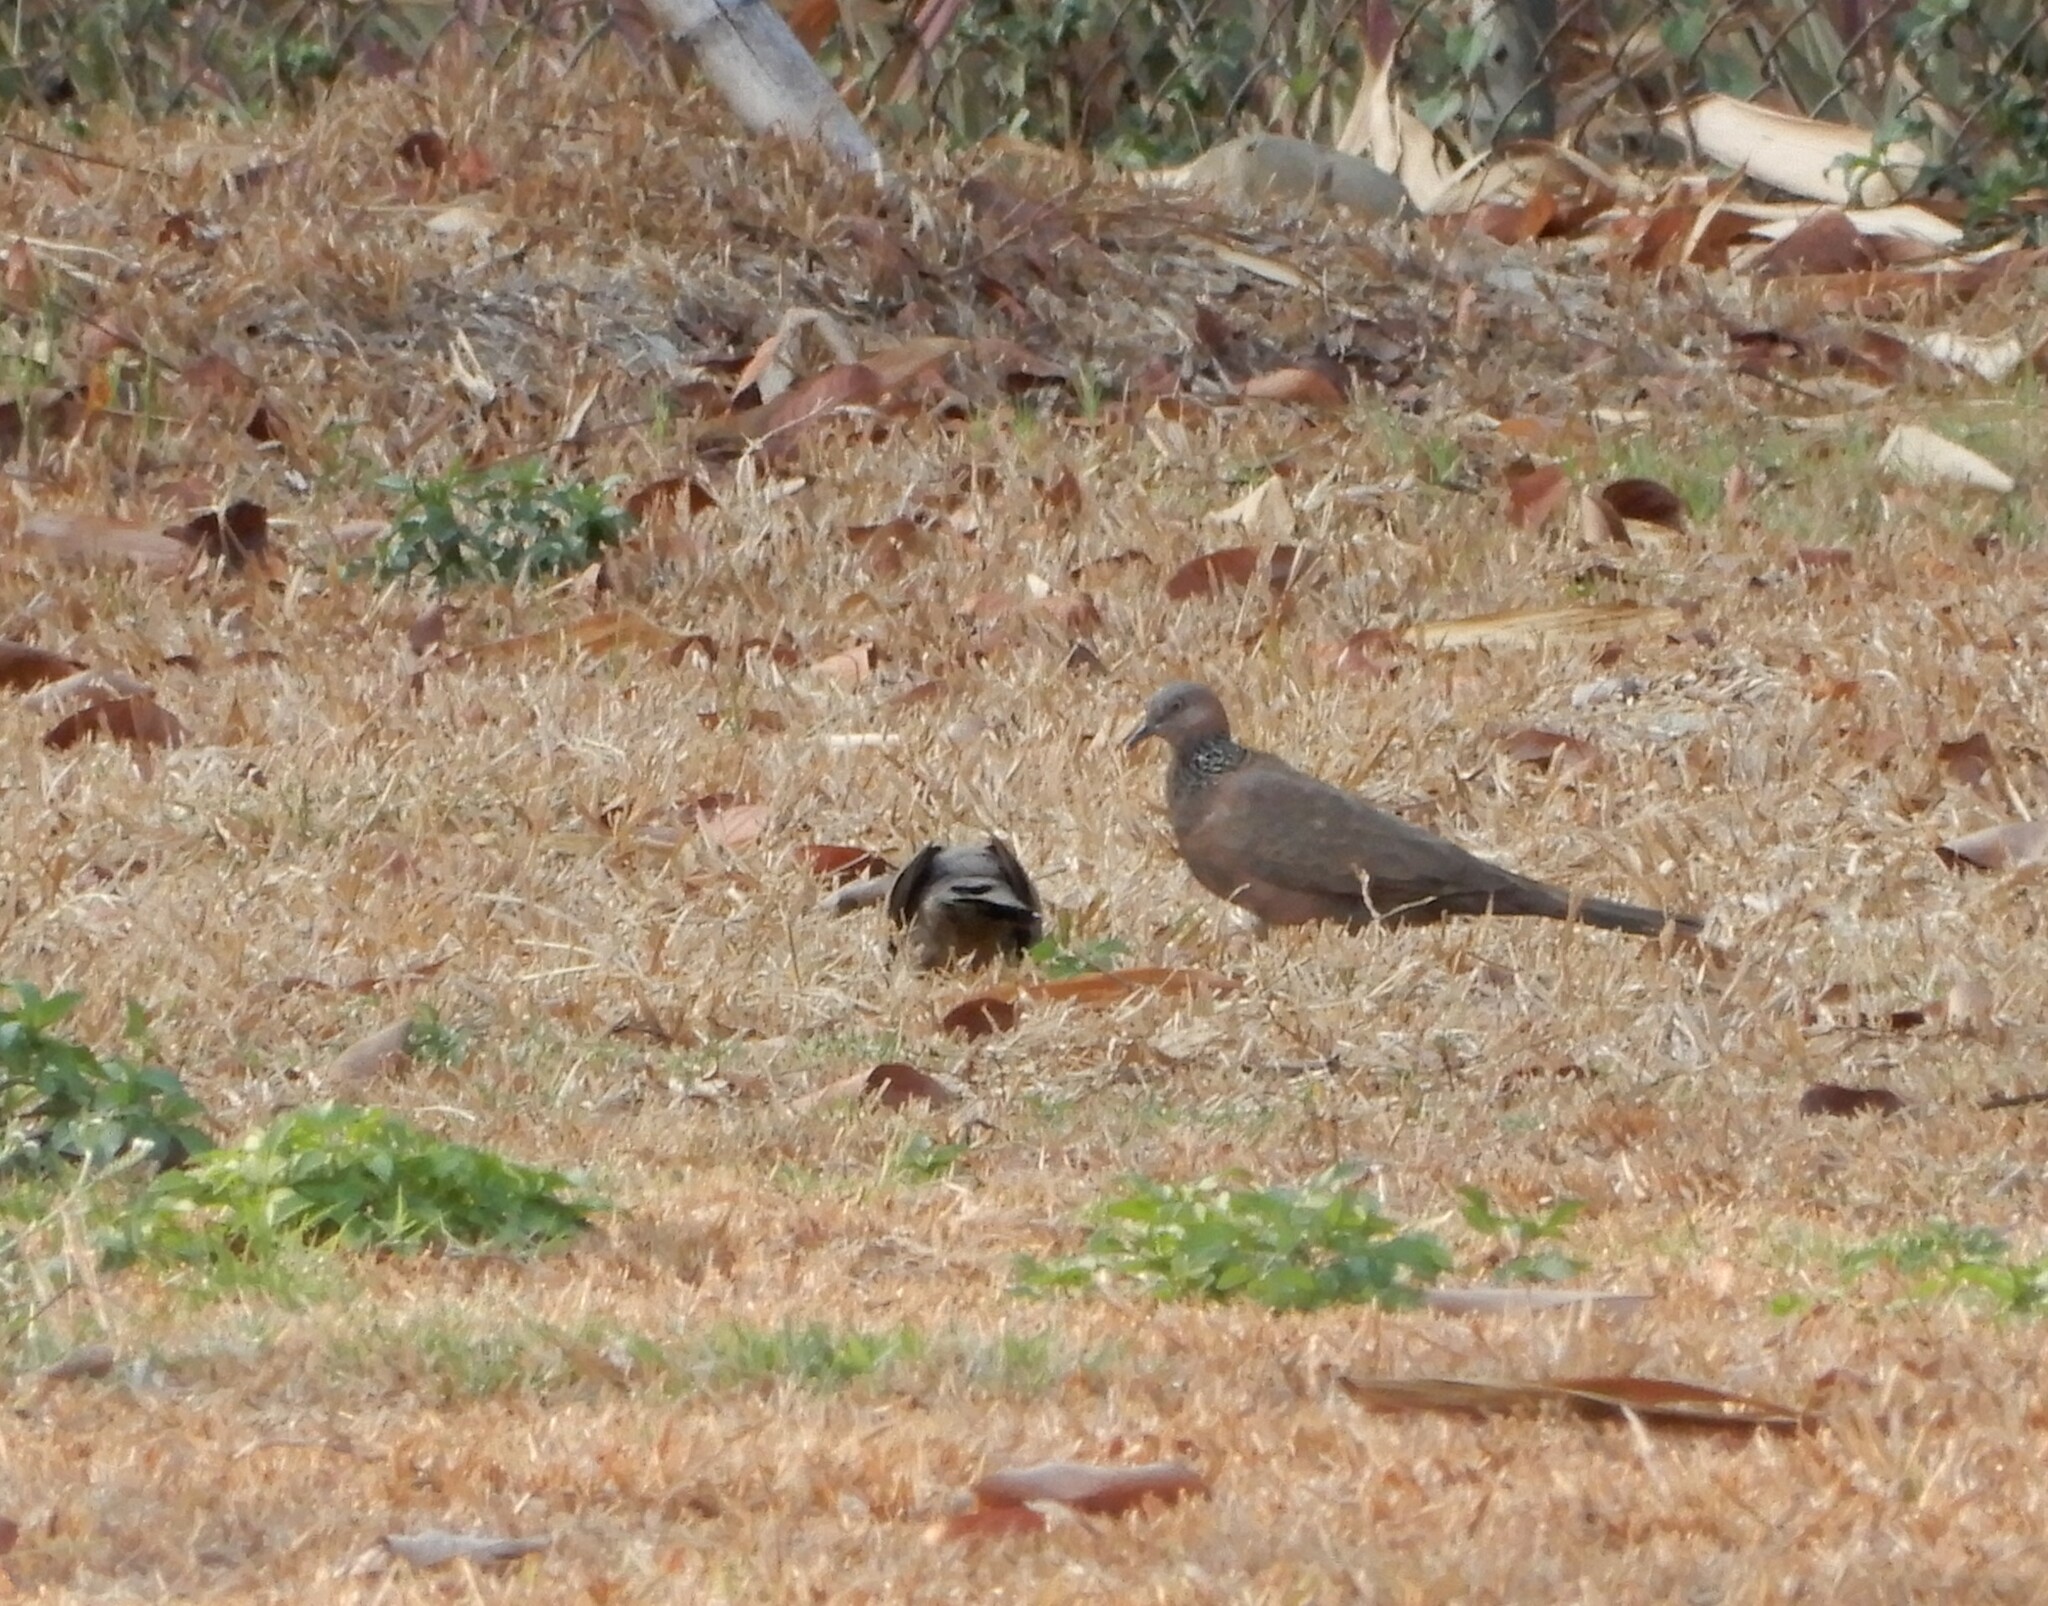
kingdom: Animalia
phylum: Chordata
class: Aves
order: Columbiformes
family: Columbidae
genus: Spilopelia
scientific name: Spilopelia chinensis
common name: Spotted dove
